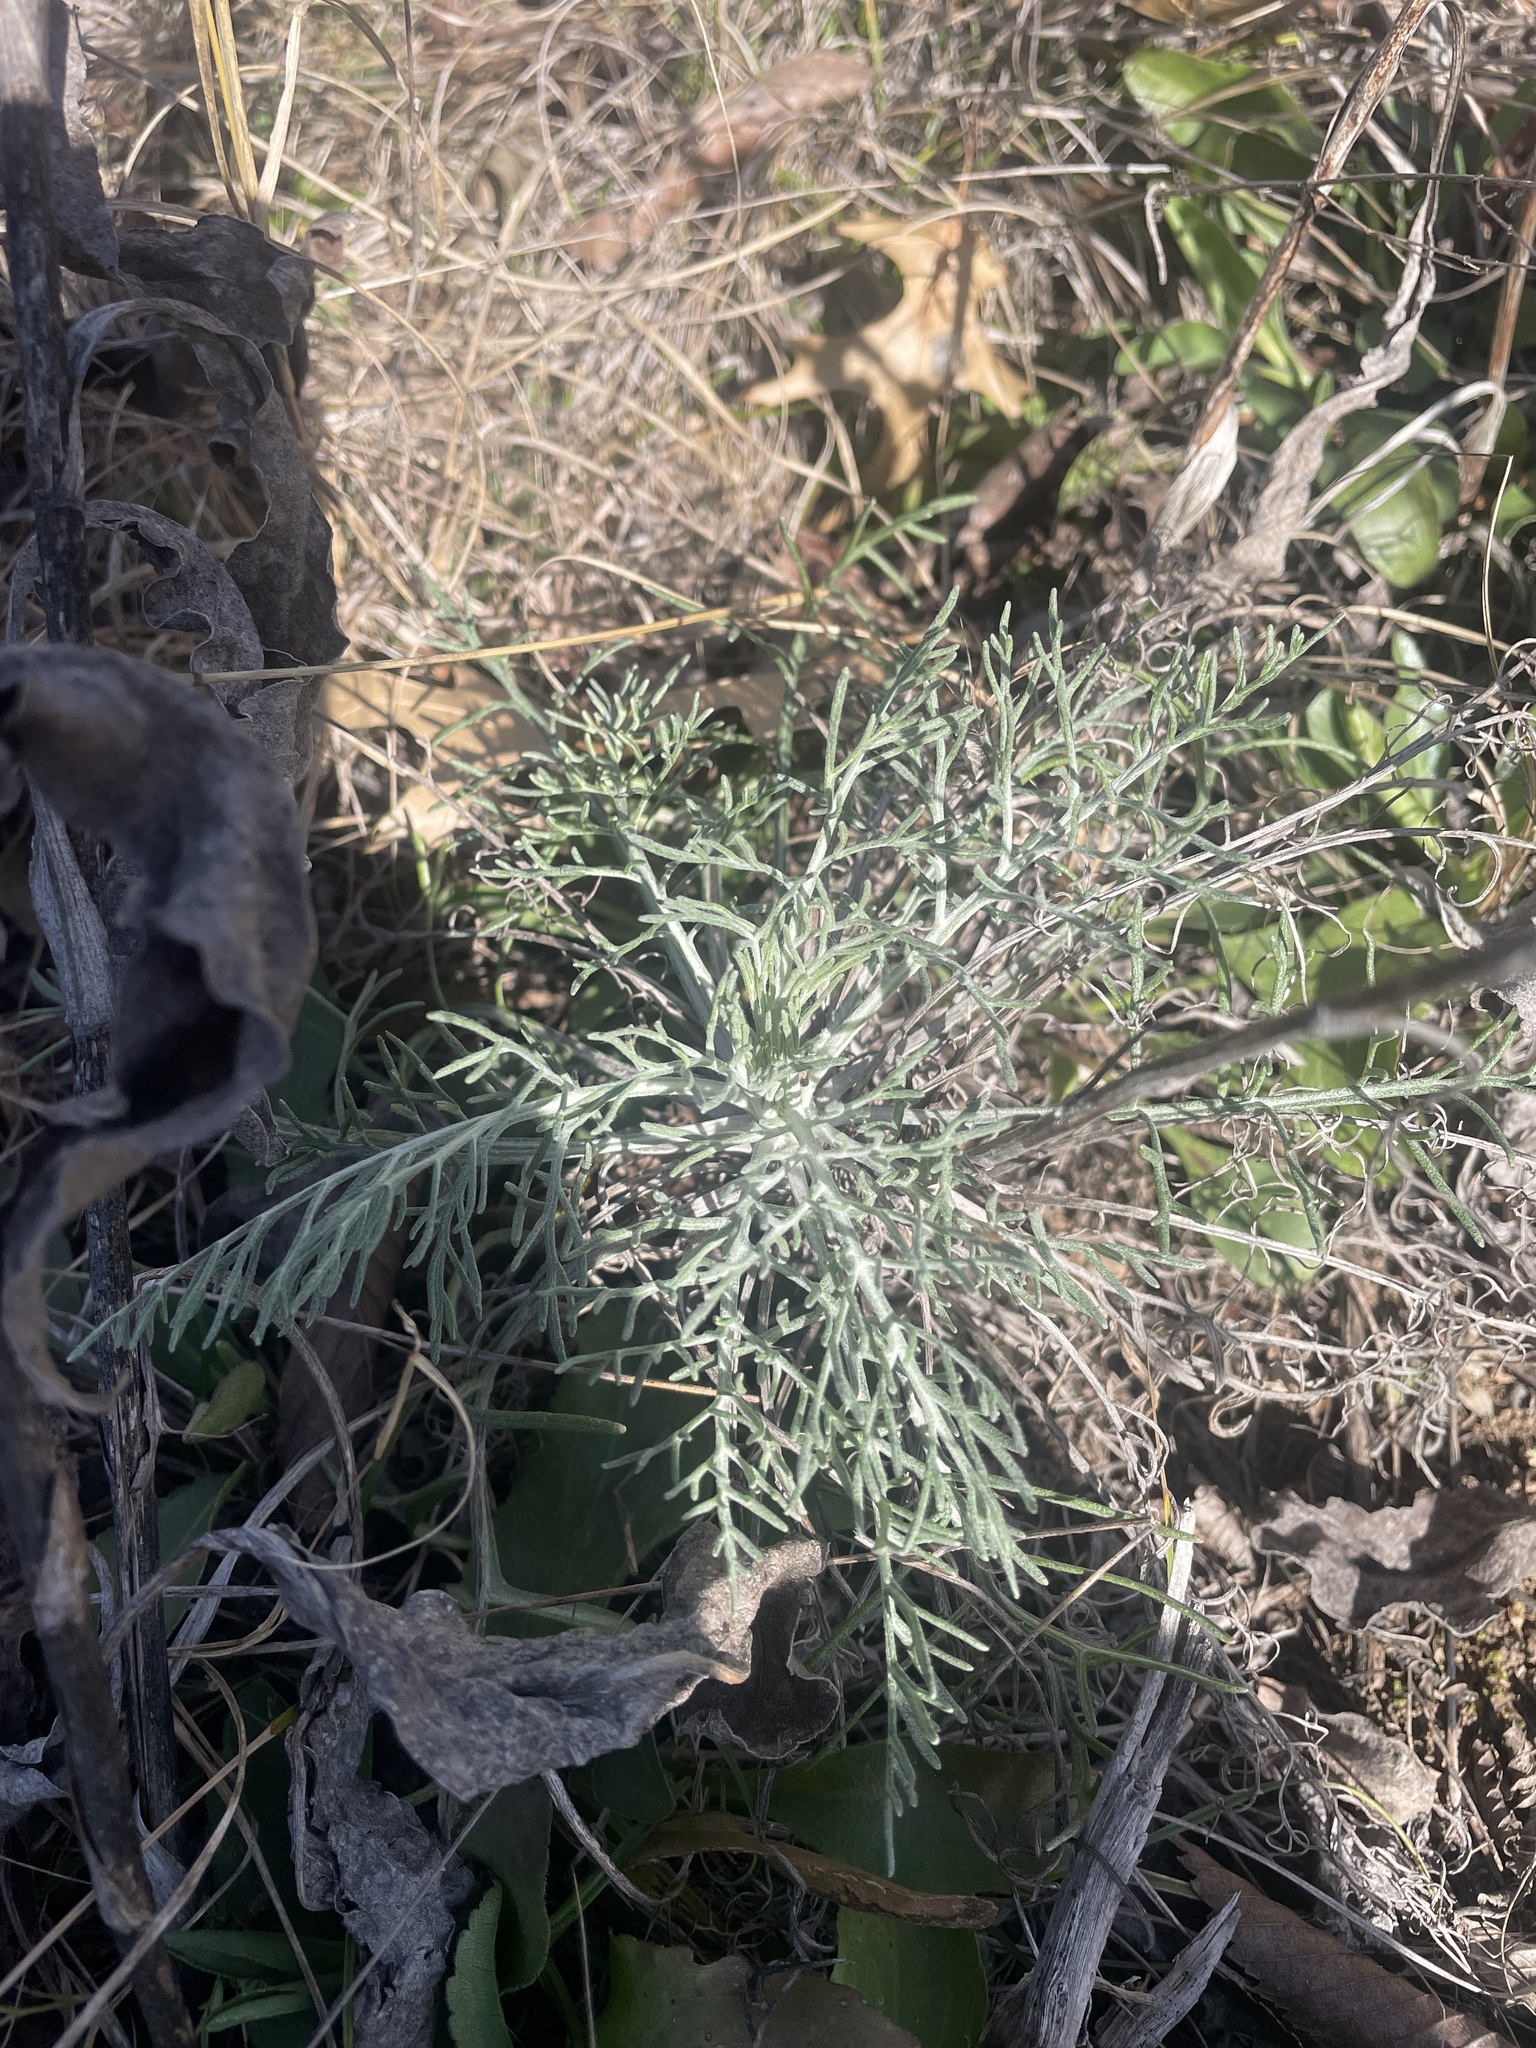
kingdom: Plantae
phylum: Tracheophyta
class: Magnoliopsida
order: Asterales
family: Asteraceae
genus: Hymenopappus
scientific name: Hymenopappus tenuifolius
